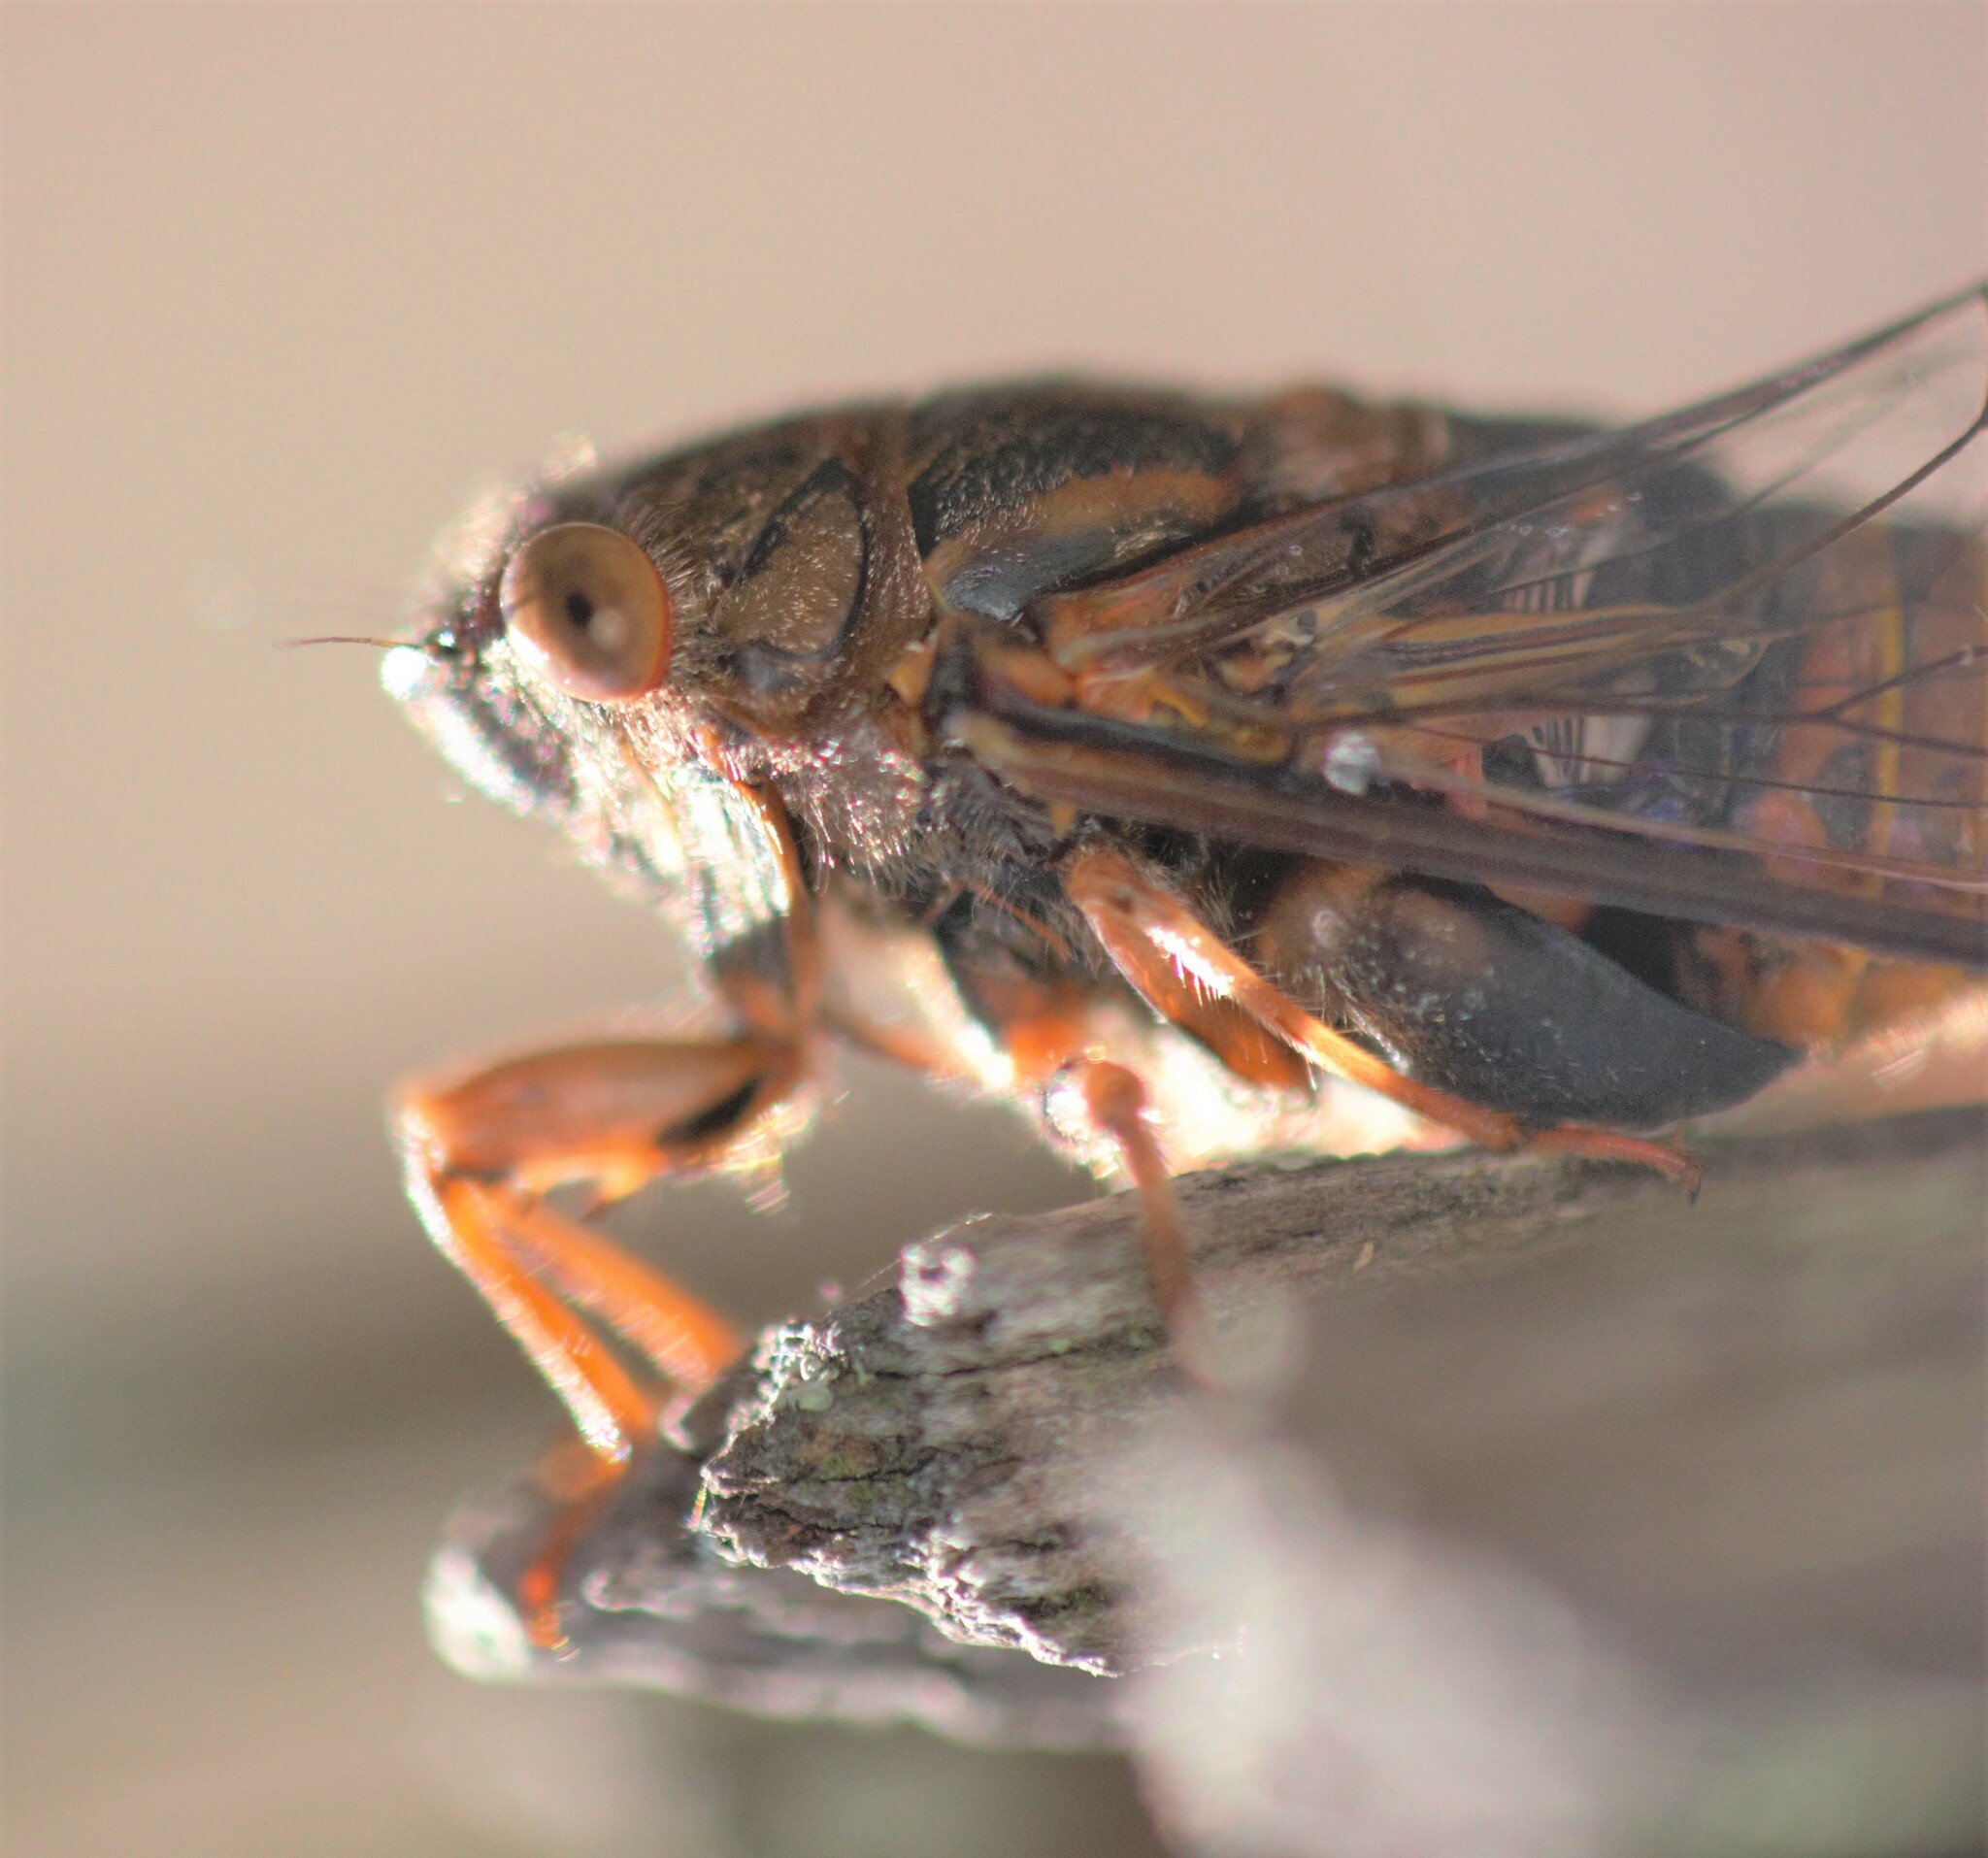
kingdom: Animalia
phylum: Arthropoda
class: Insecta
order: Hemiptera
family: Cicadidae
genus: Birrima
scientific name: Birrima varians
